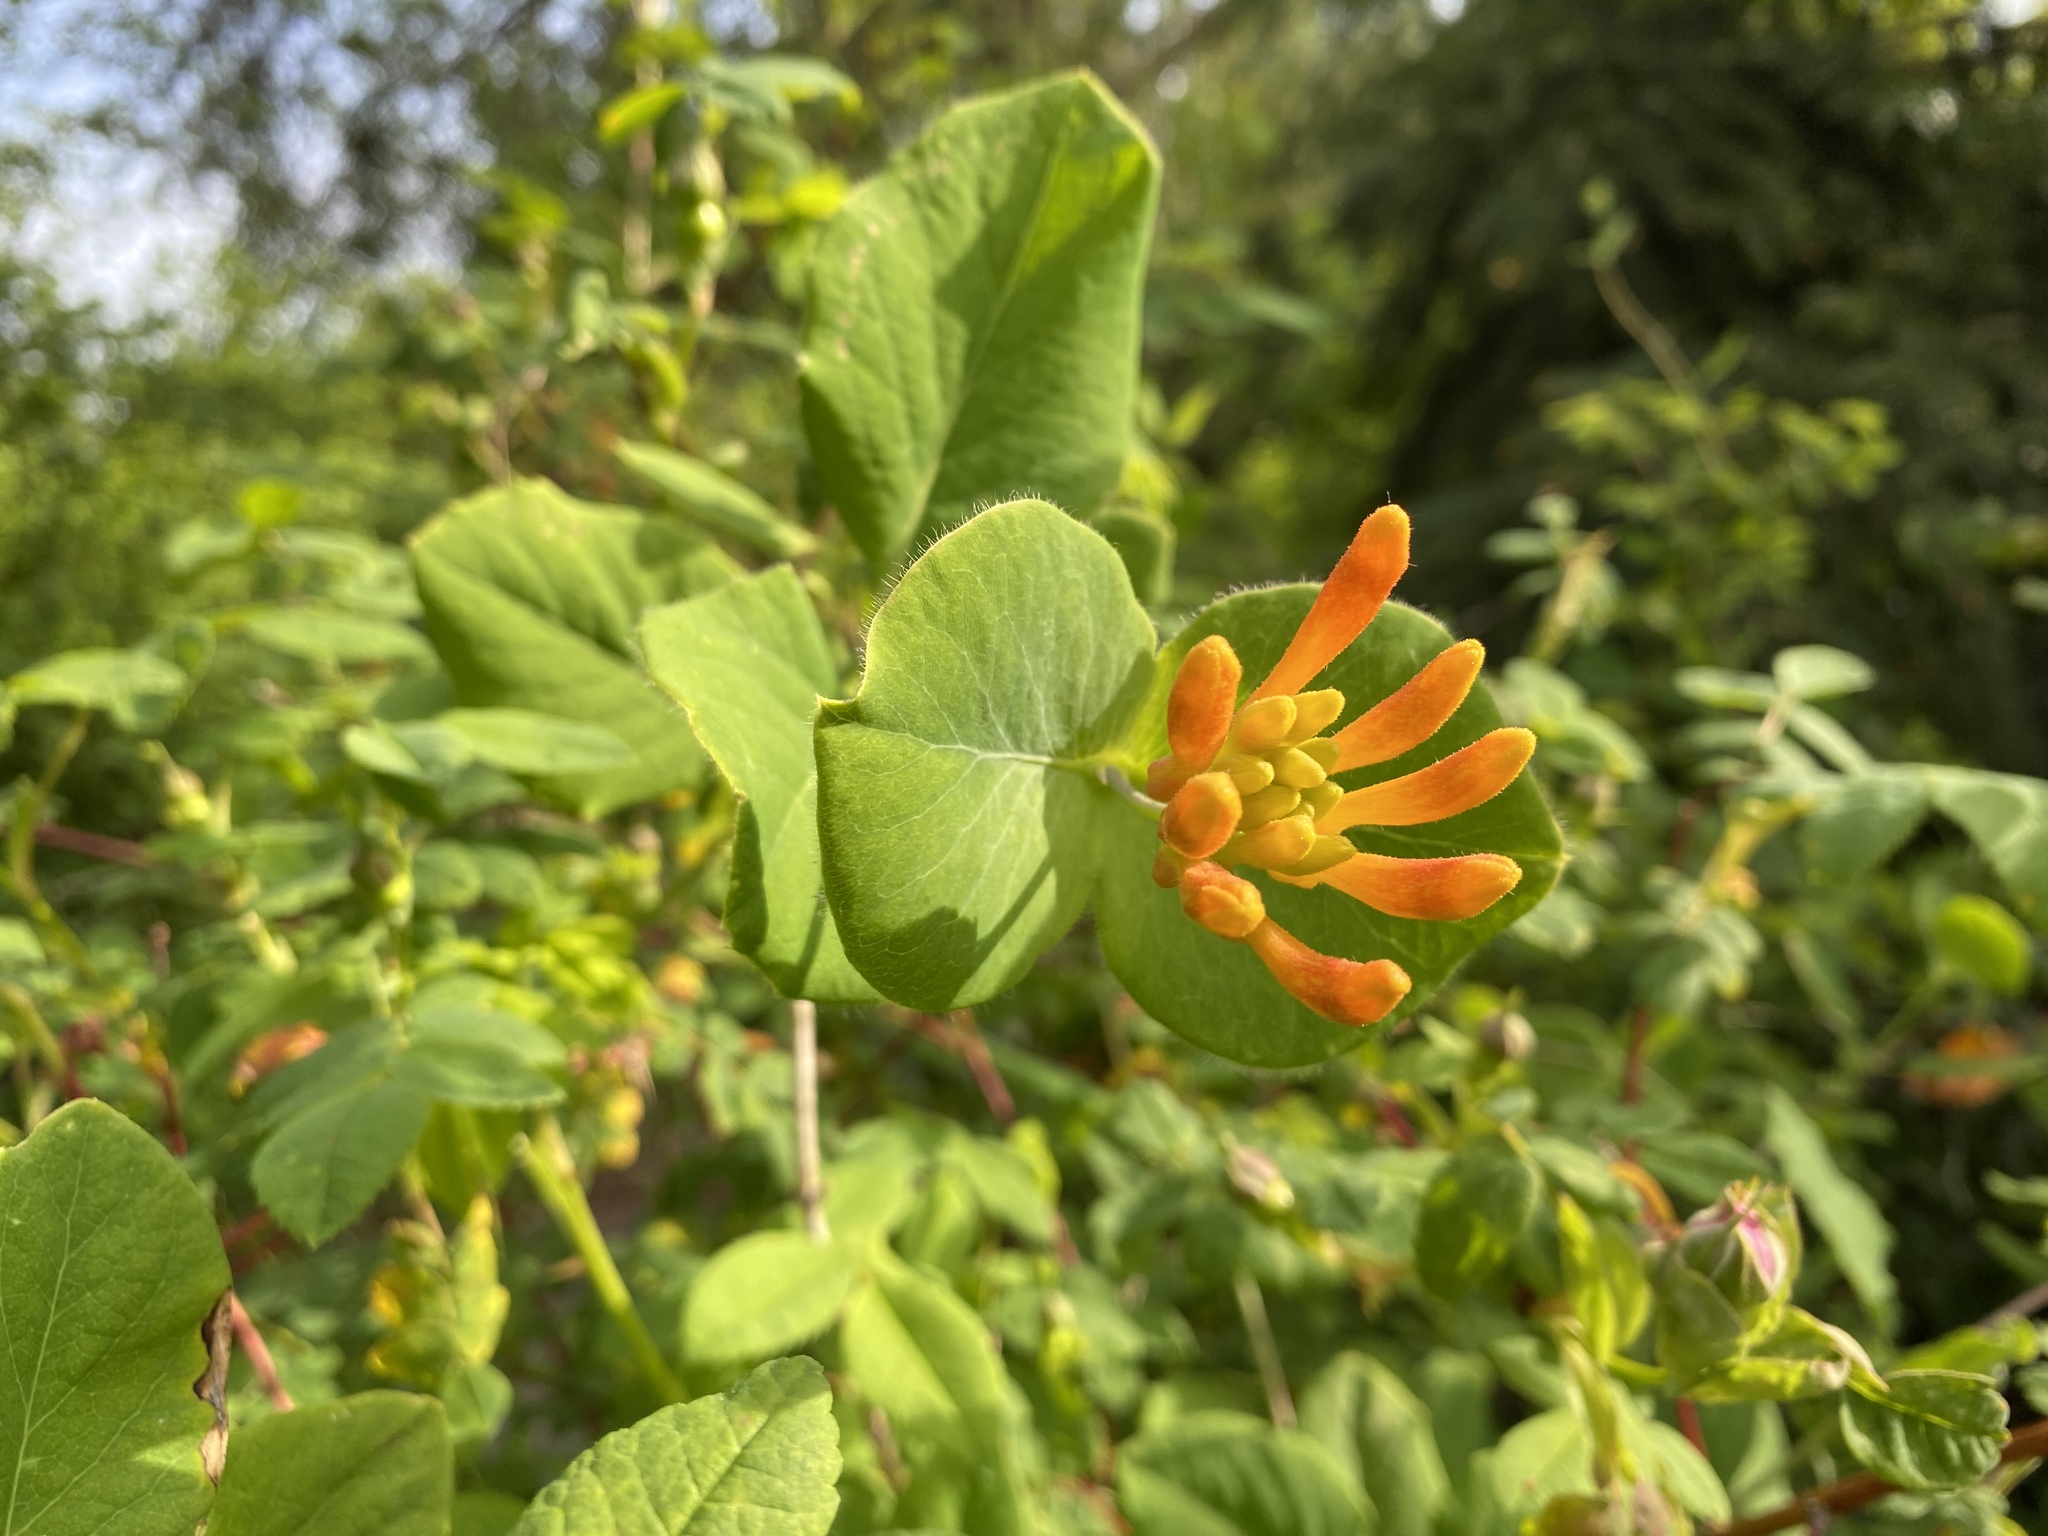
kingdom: Plantae
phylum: Tracheophyta
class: Magnoliopsida
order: Dipsacales
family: Caprifoliaceae
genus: Lonicera
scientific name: Lonicera ciliosa
